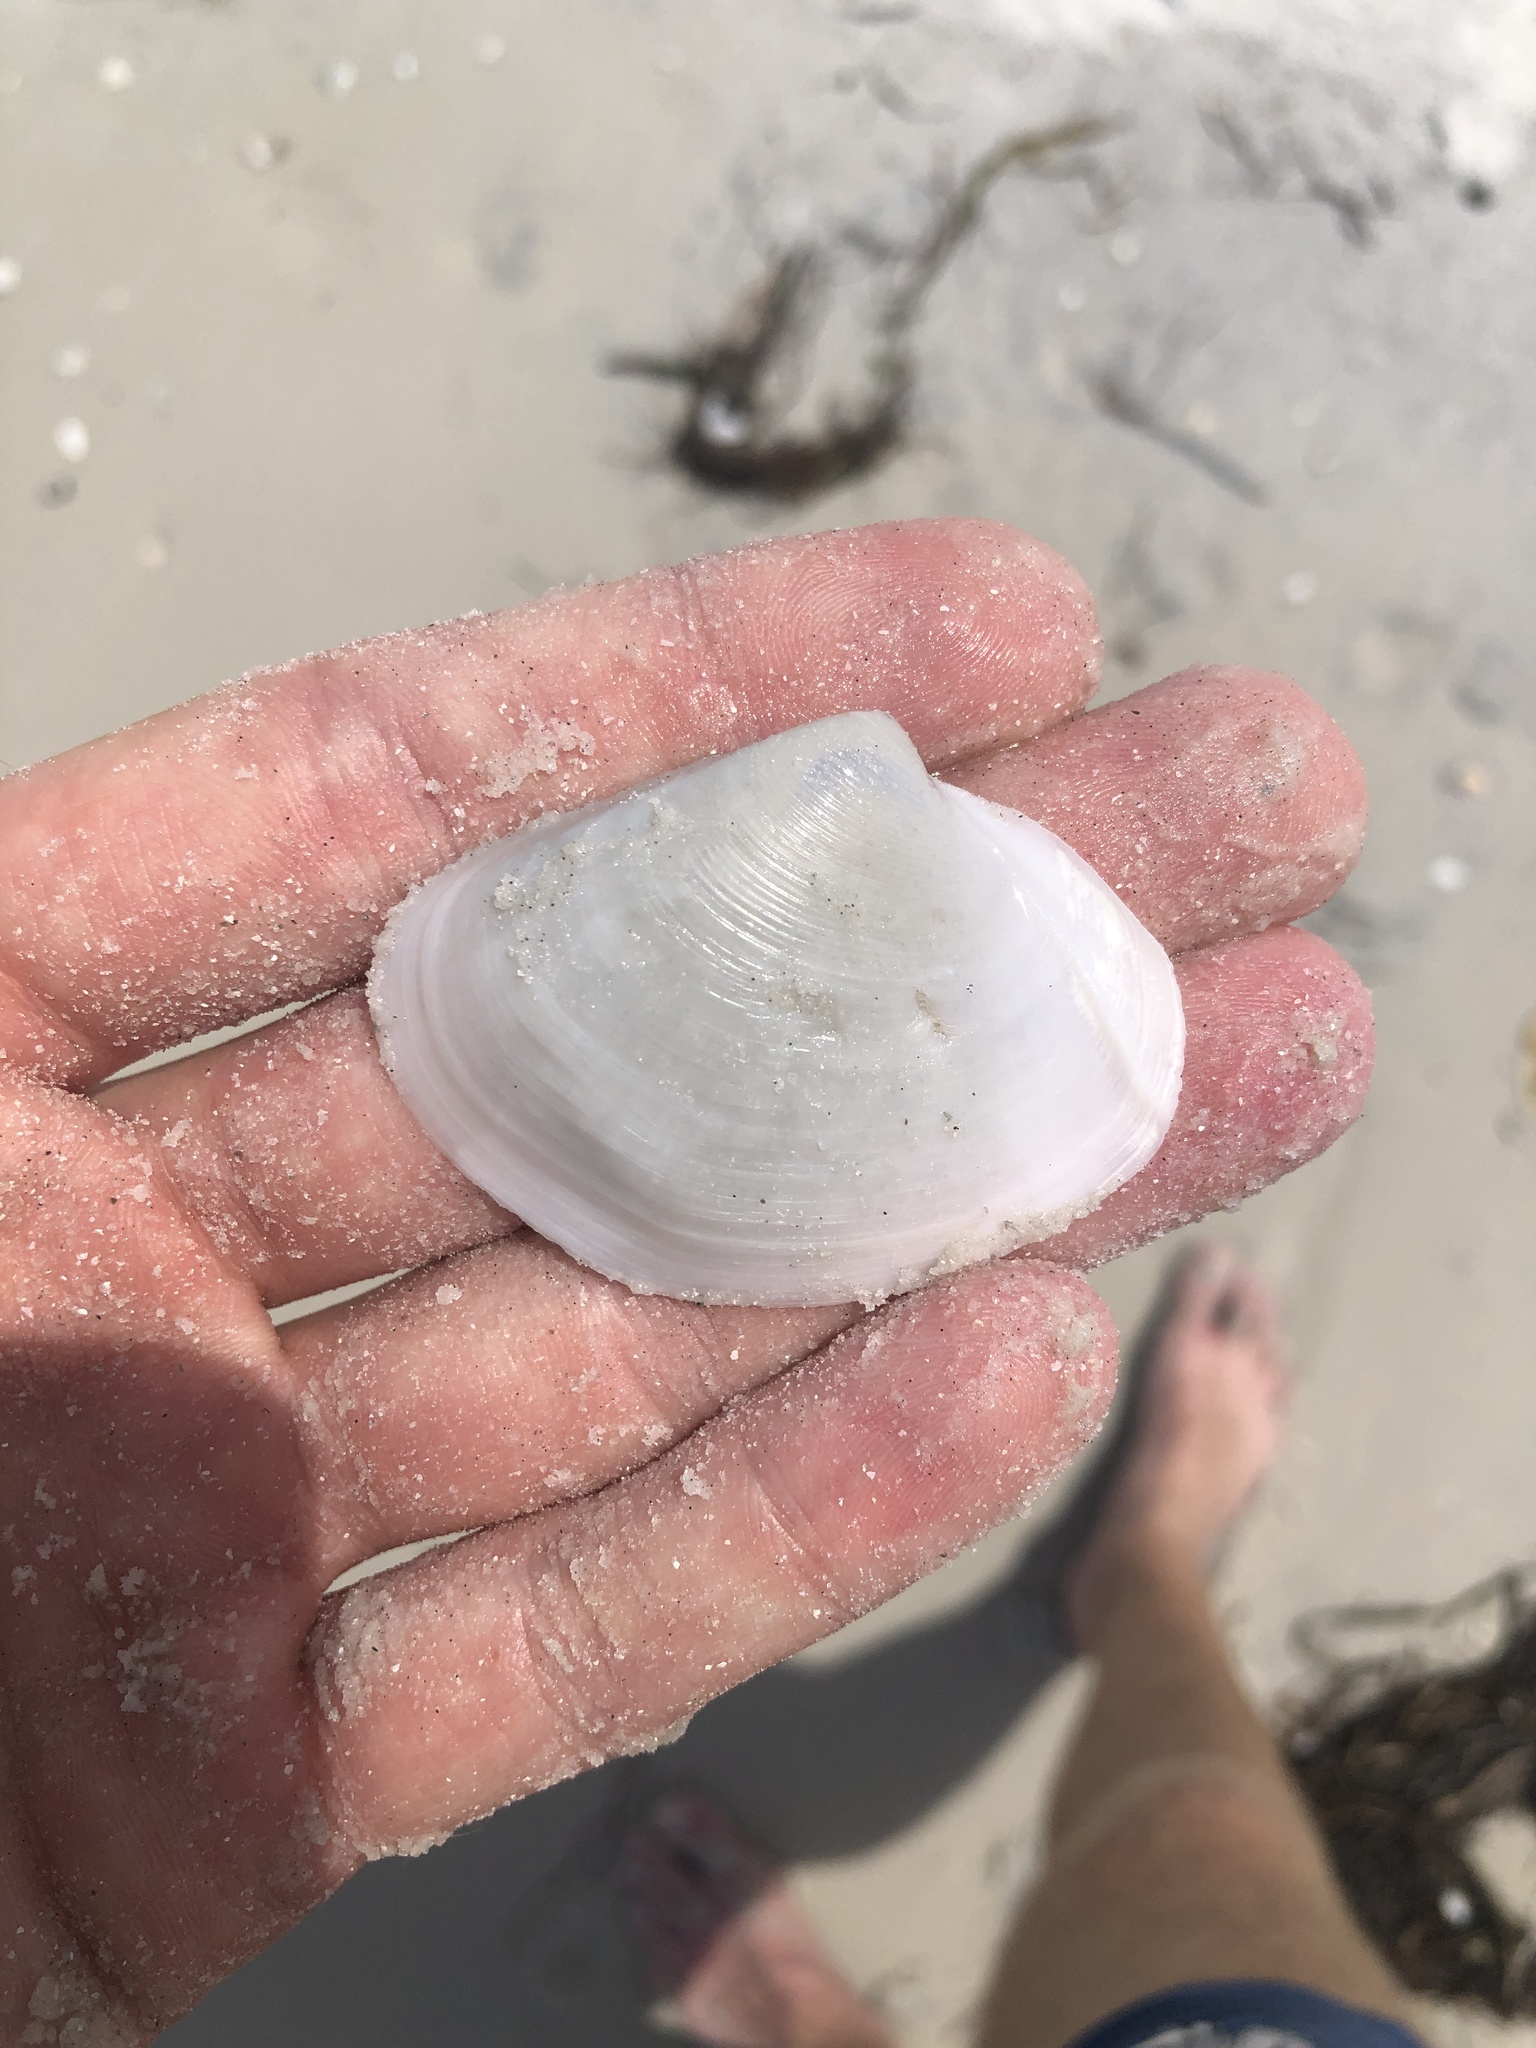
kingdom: Animalia
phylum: Mollusca
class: Bivalvia
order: Venerida
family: Anatinellidae
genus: Anatina
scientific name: Anatina anatina
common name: Smooth duckclam
